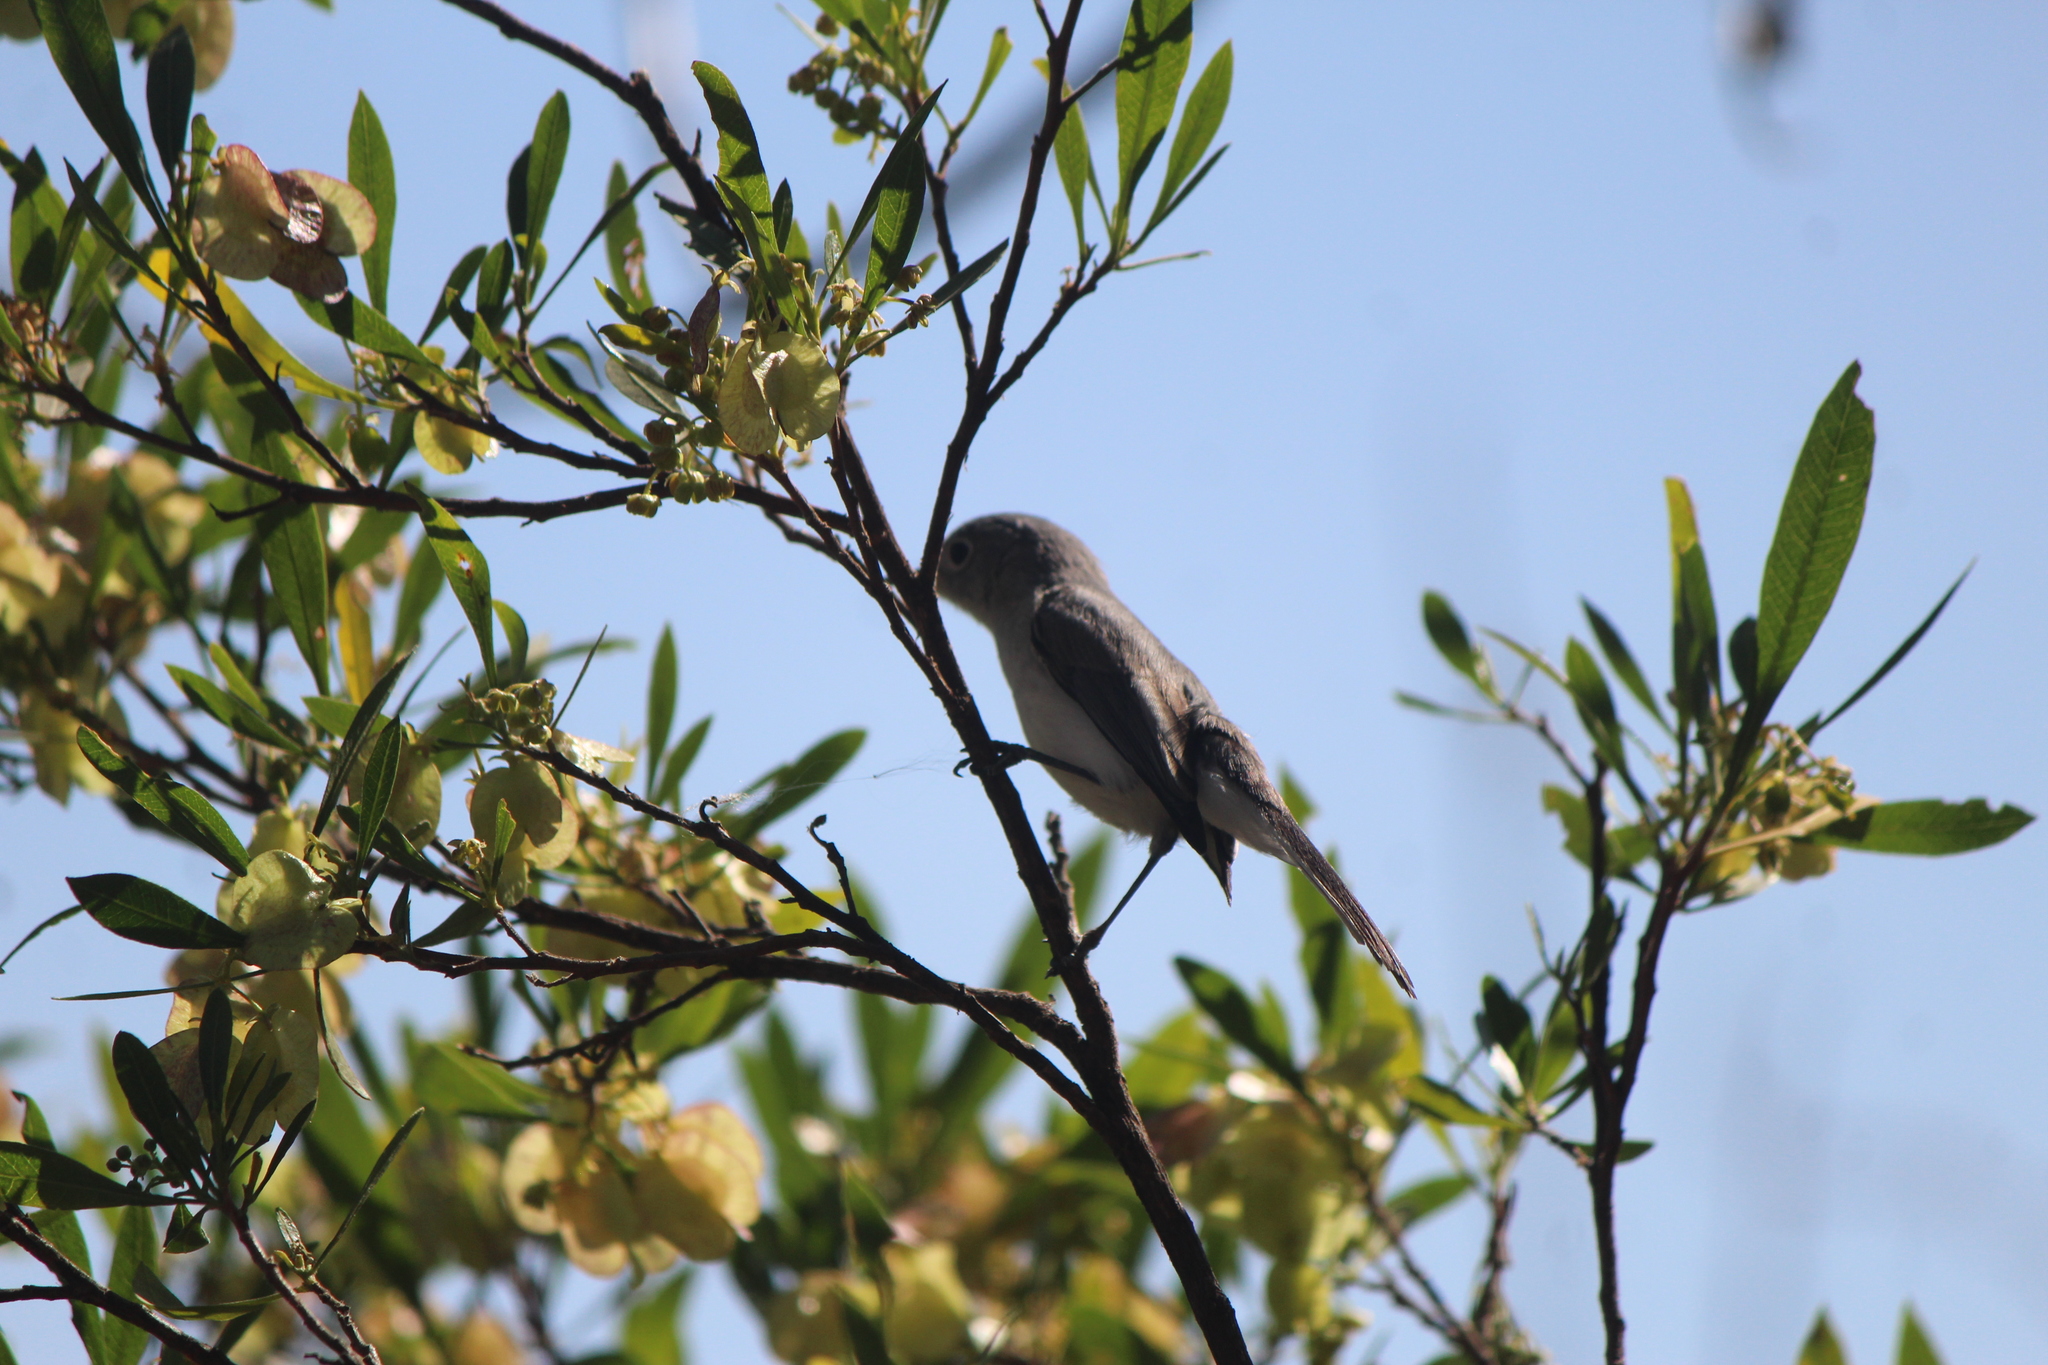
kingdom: Animalia
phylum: Chordata
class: Aves
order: Passeriformes
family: Polioptilidae
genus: Polioptila
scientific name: Polioptila caerulea
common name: Blue-gray gnatcatcher
